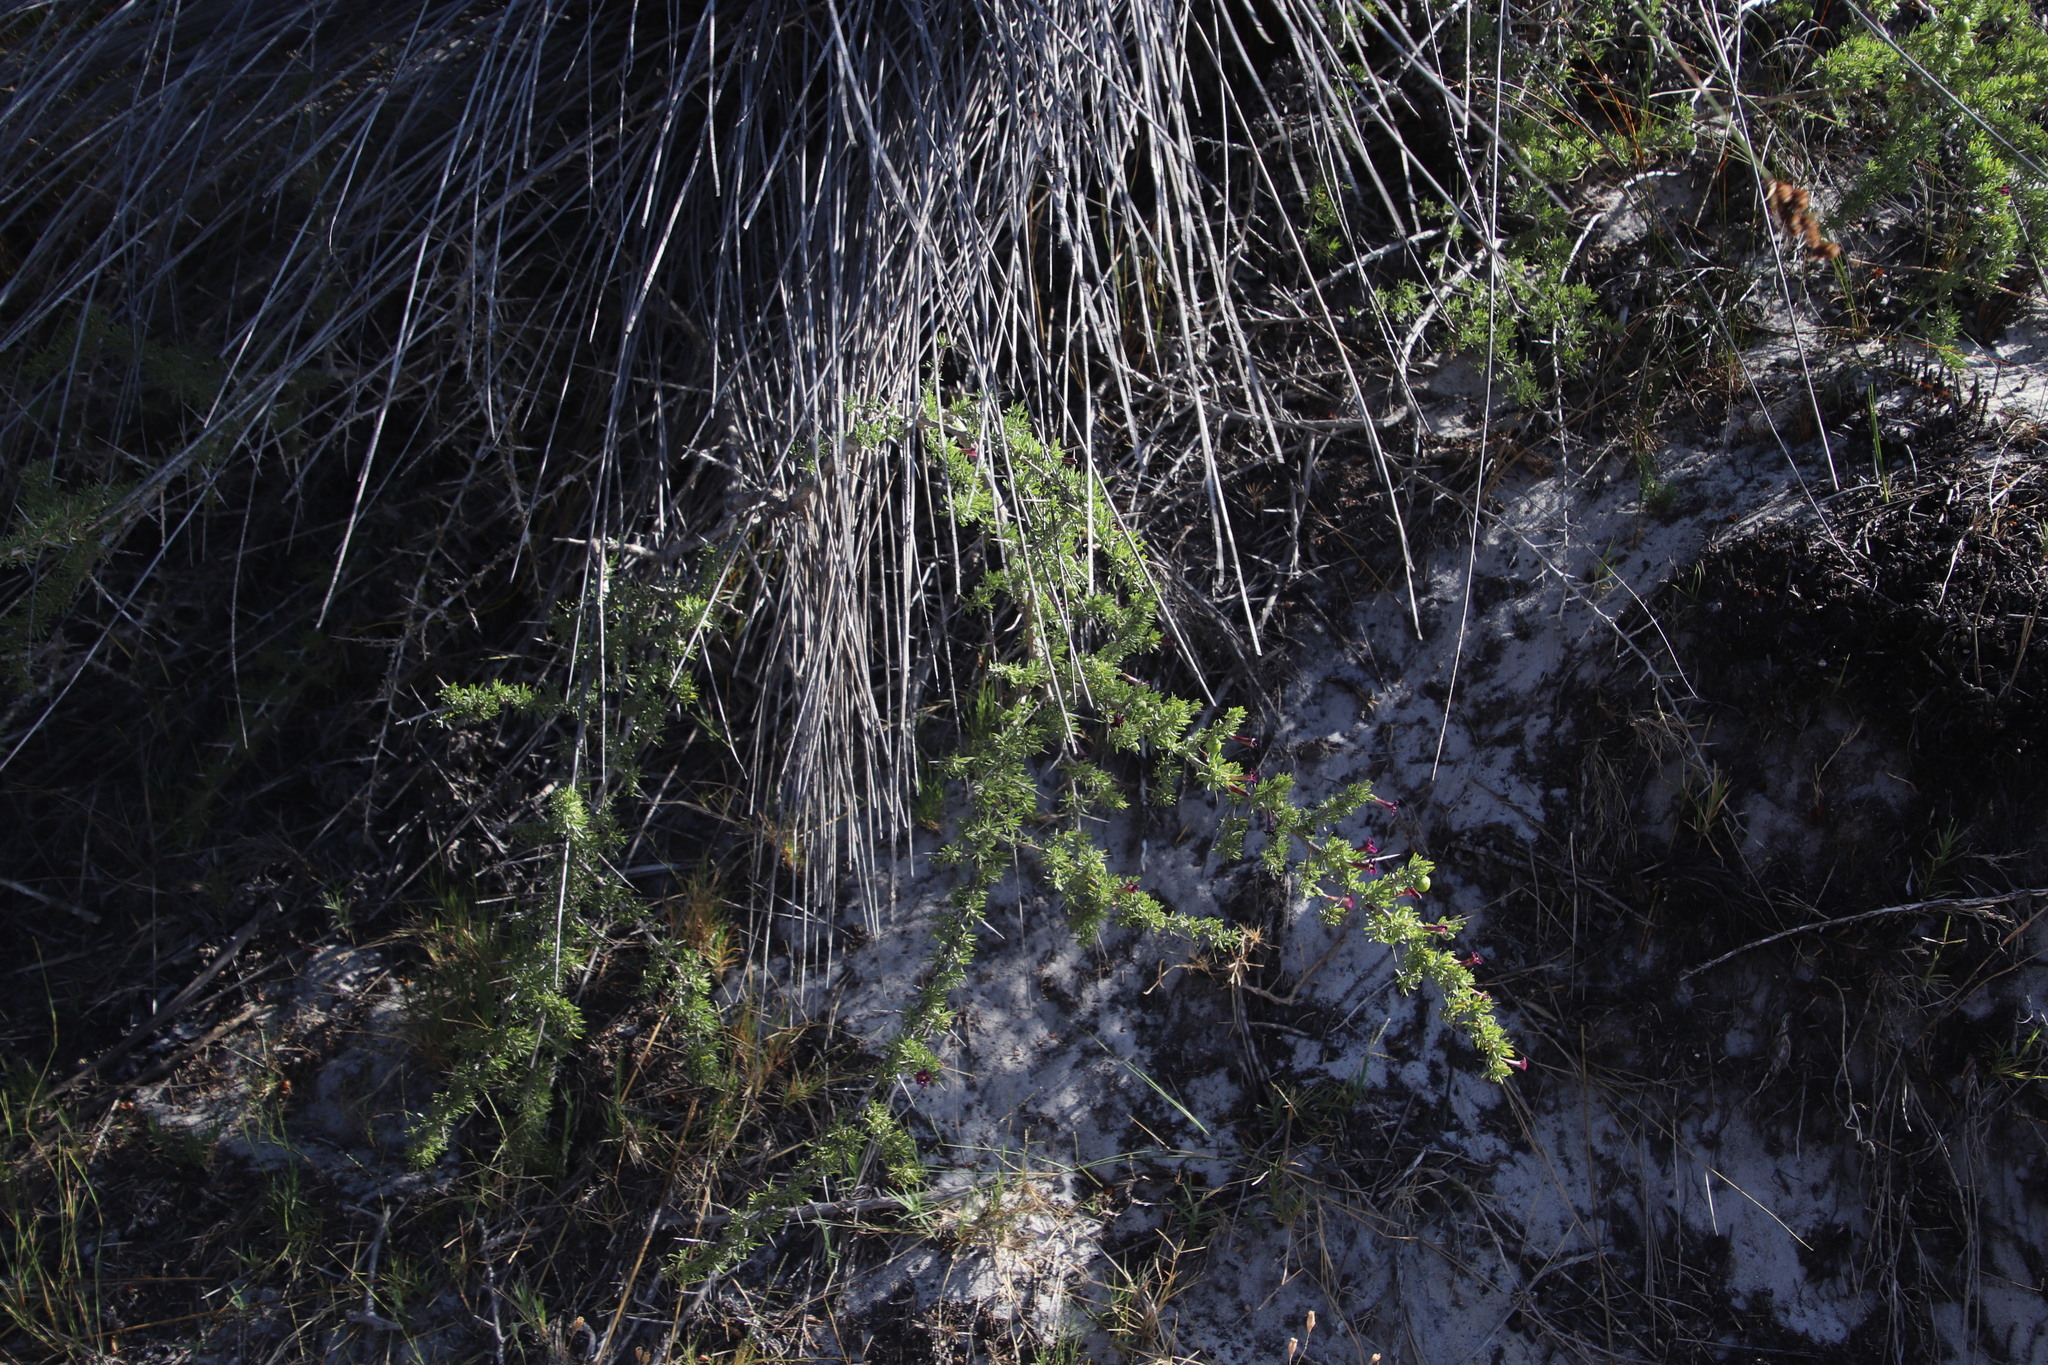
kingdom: Plantae
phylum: Tracheophyta
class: Magnoliopsida
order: Solanales
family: Solanaceae
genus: Lycium
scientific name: Lycium afrum
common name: Kaffir boxthorn
